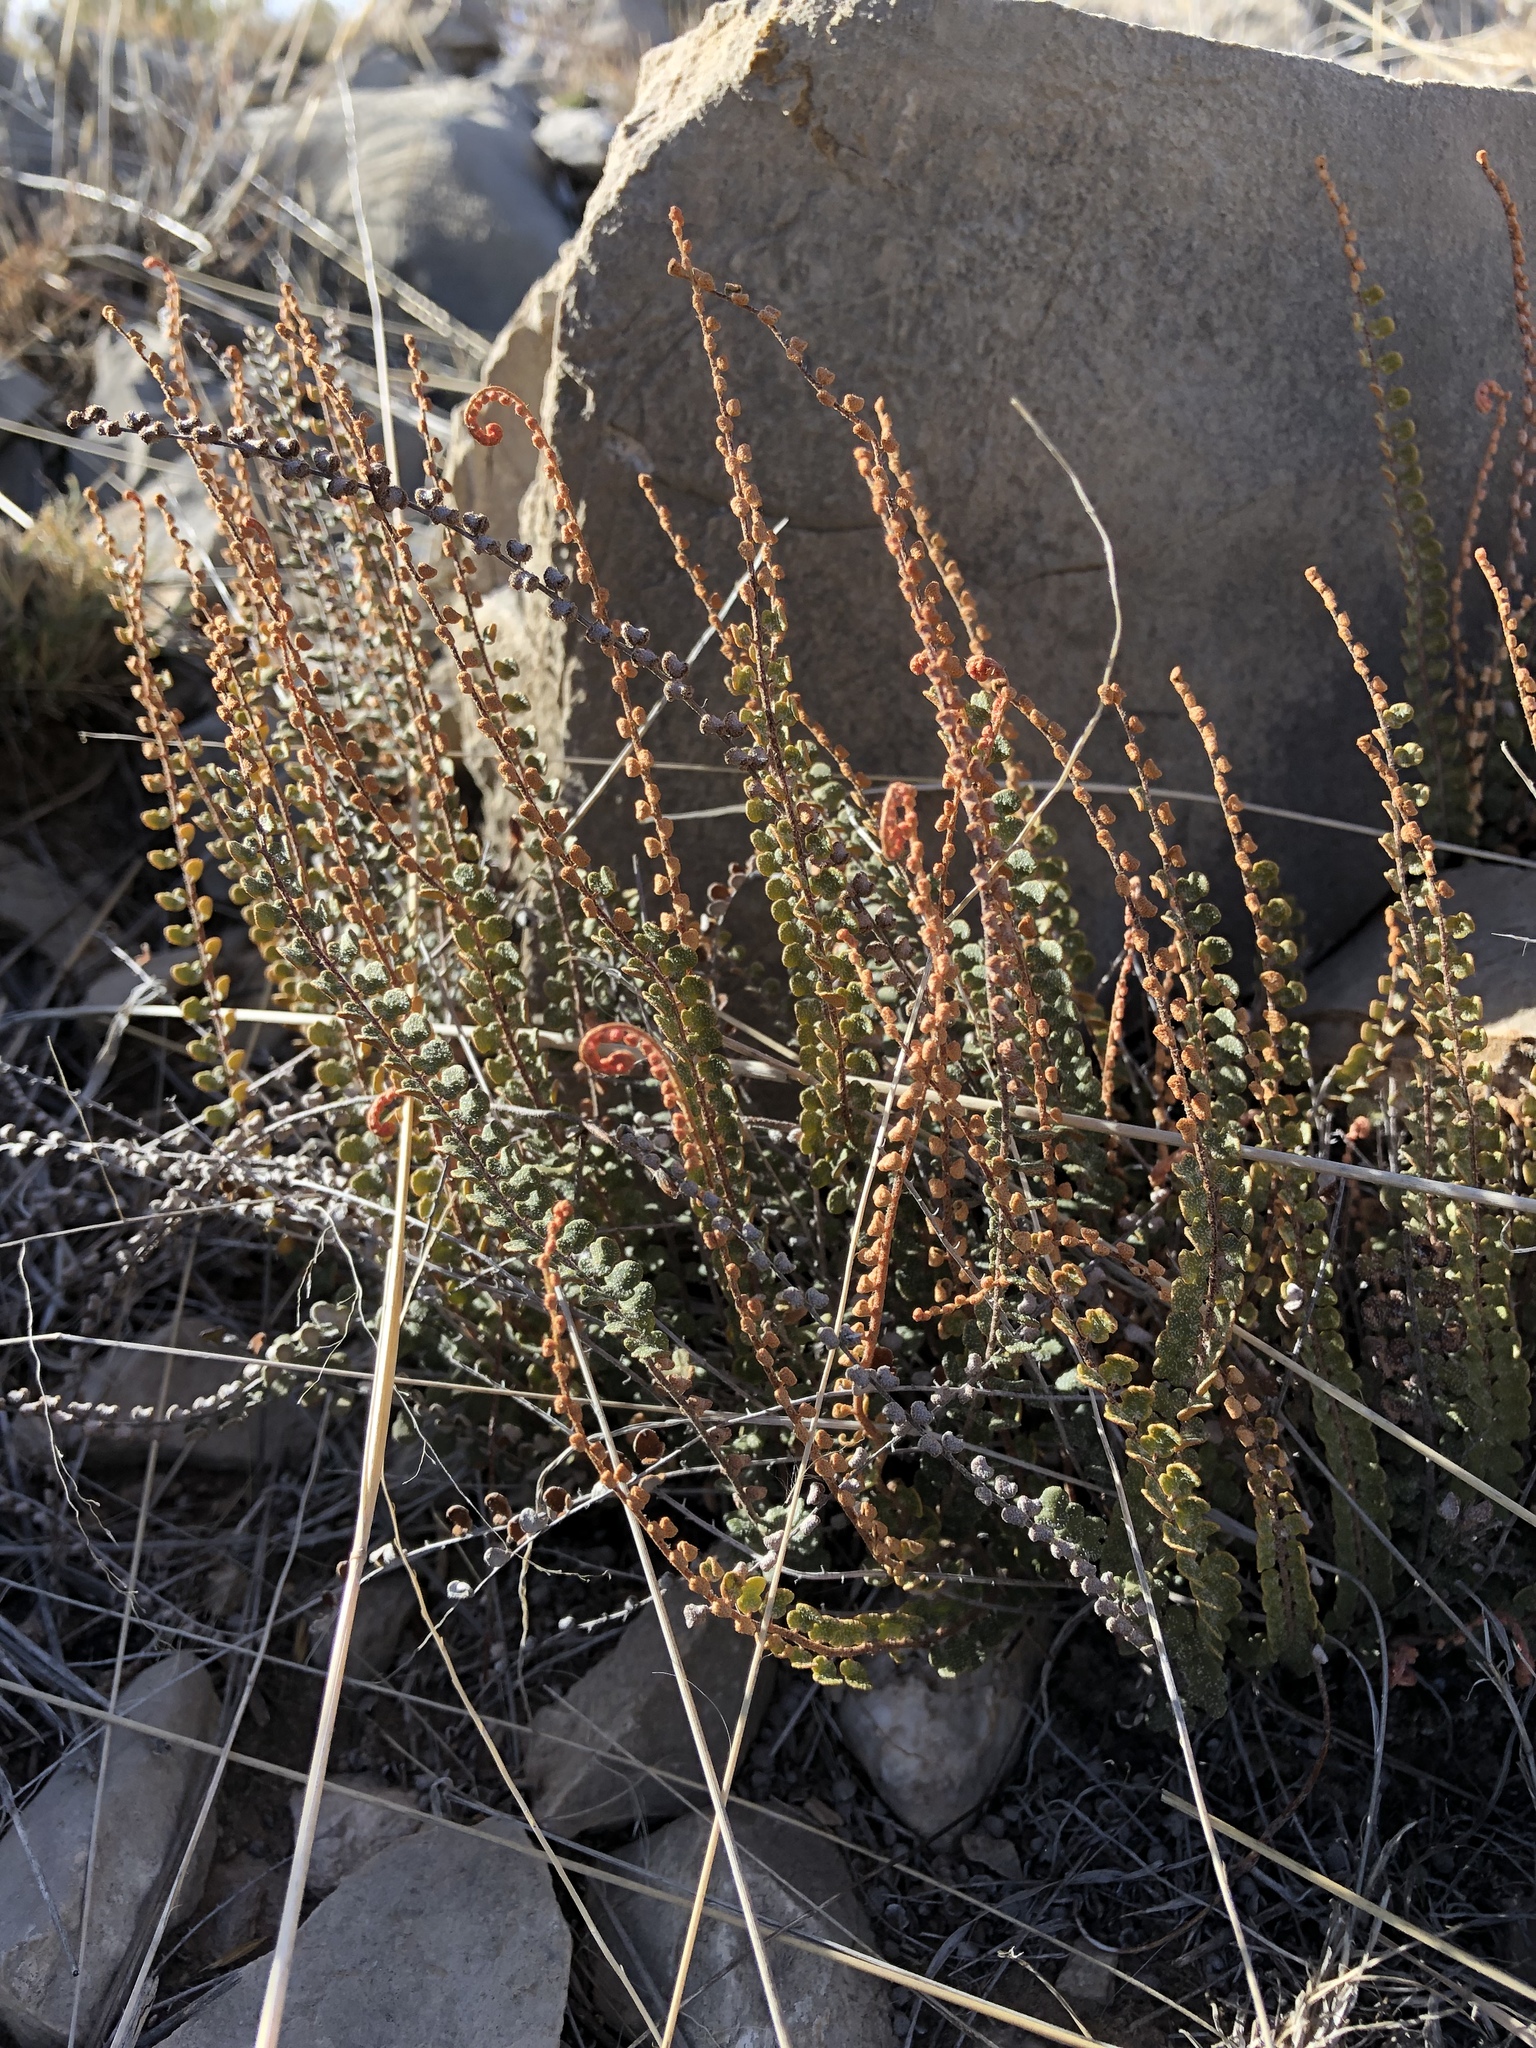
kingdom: Plantae
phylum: Tracheophyta
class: Polypodiopsida
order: Polypodiales
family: Pteridaceae
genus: Astrolepis
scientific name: Astrolepis cochisensis
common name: Scaly cloak fern
